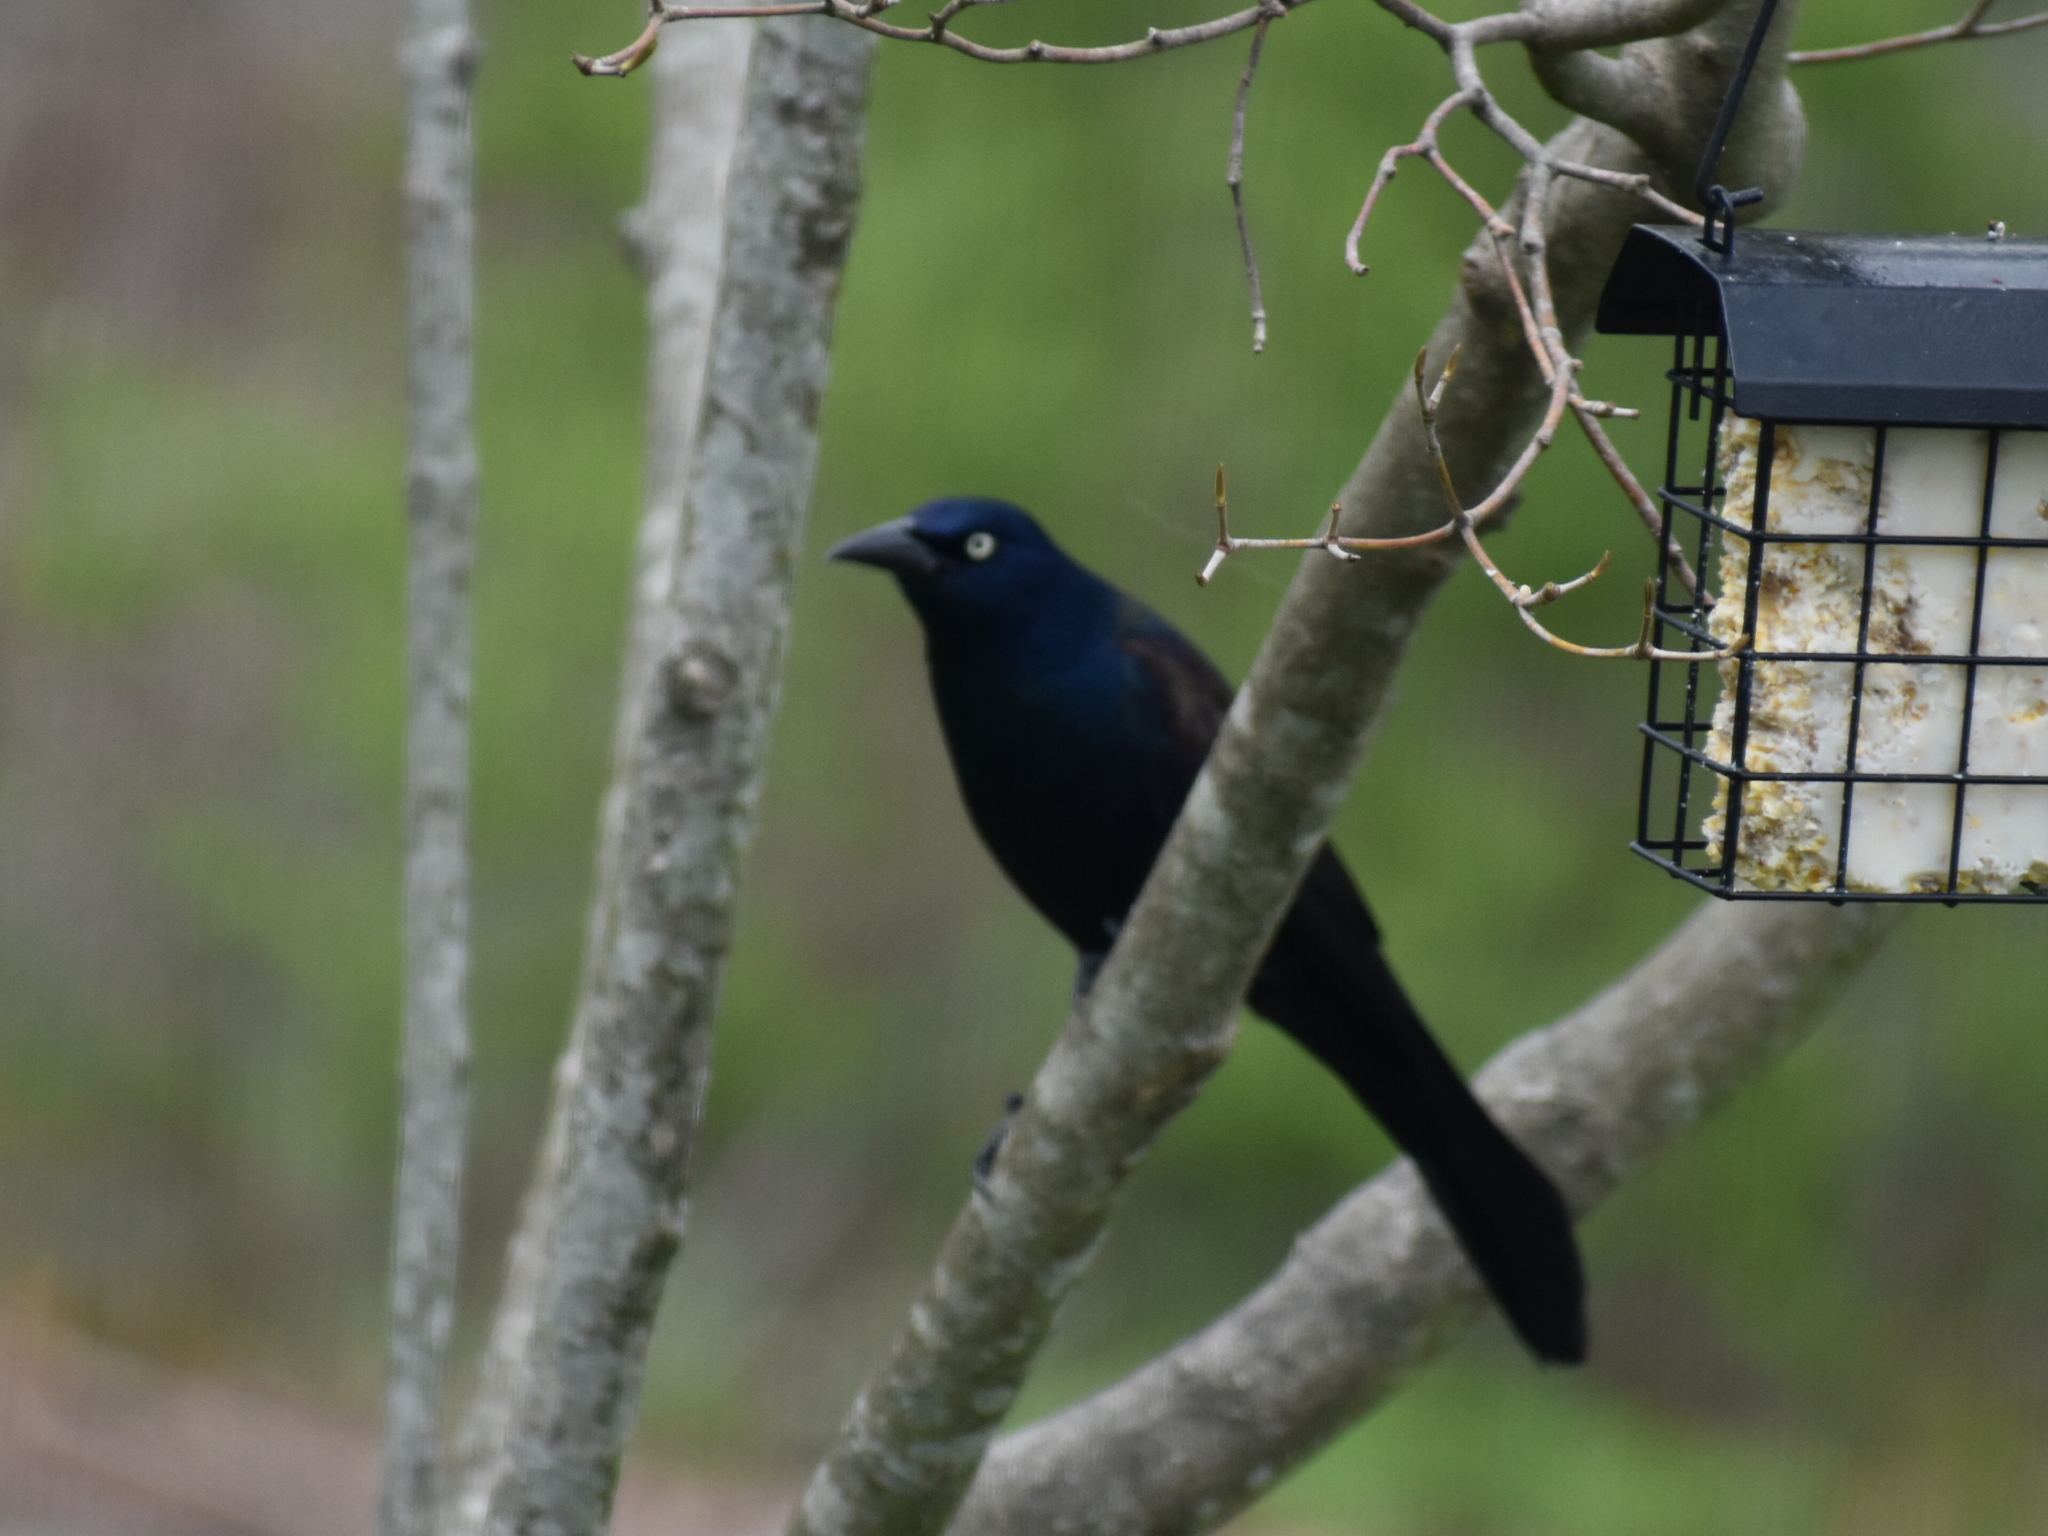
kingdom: Animalia
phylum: Chordata
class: Aves
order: Passeriformes
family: Icteridae
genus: Quiscalus
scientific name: Quiscalus quiscula
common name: Common grackle
